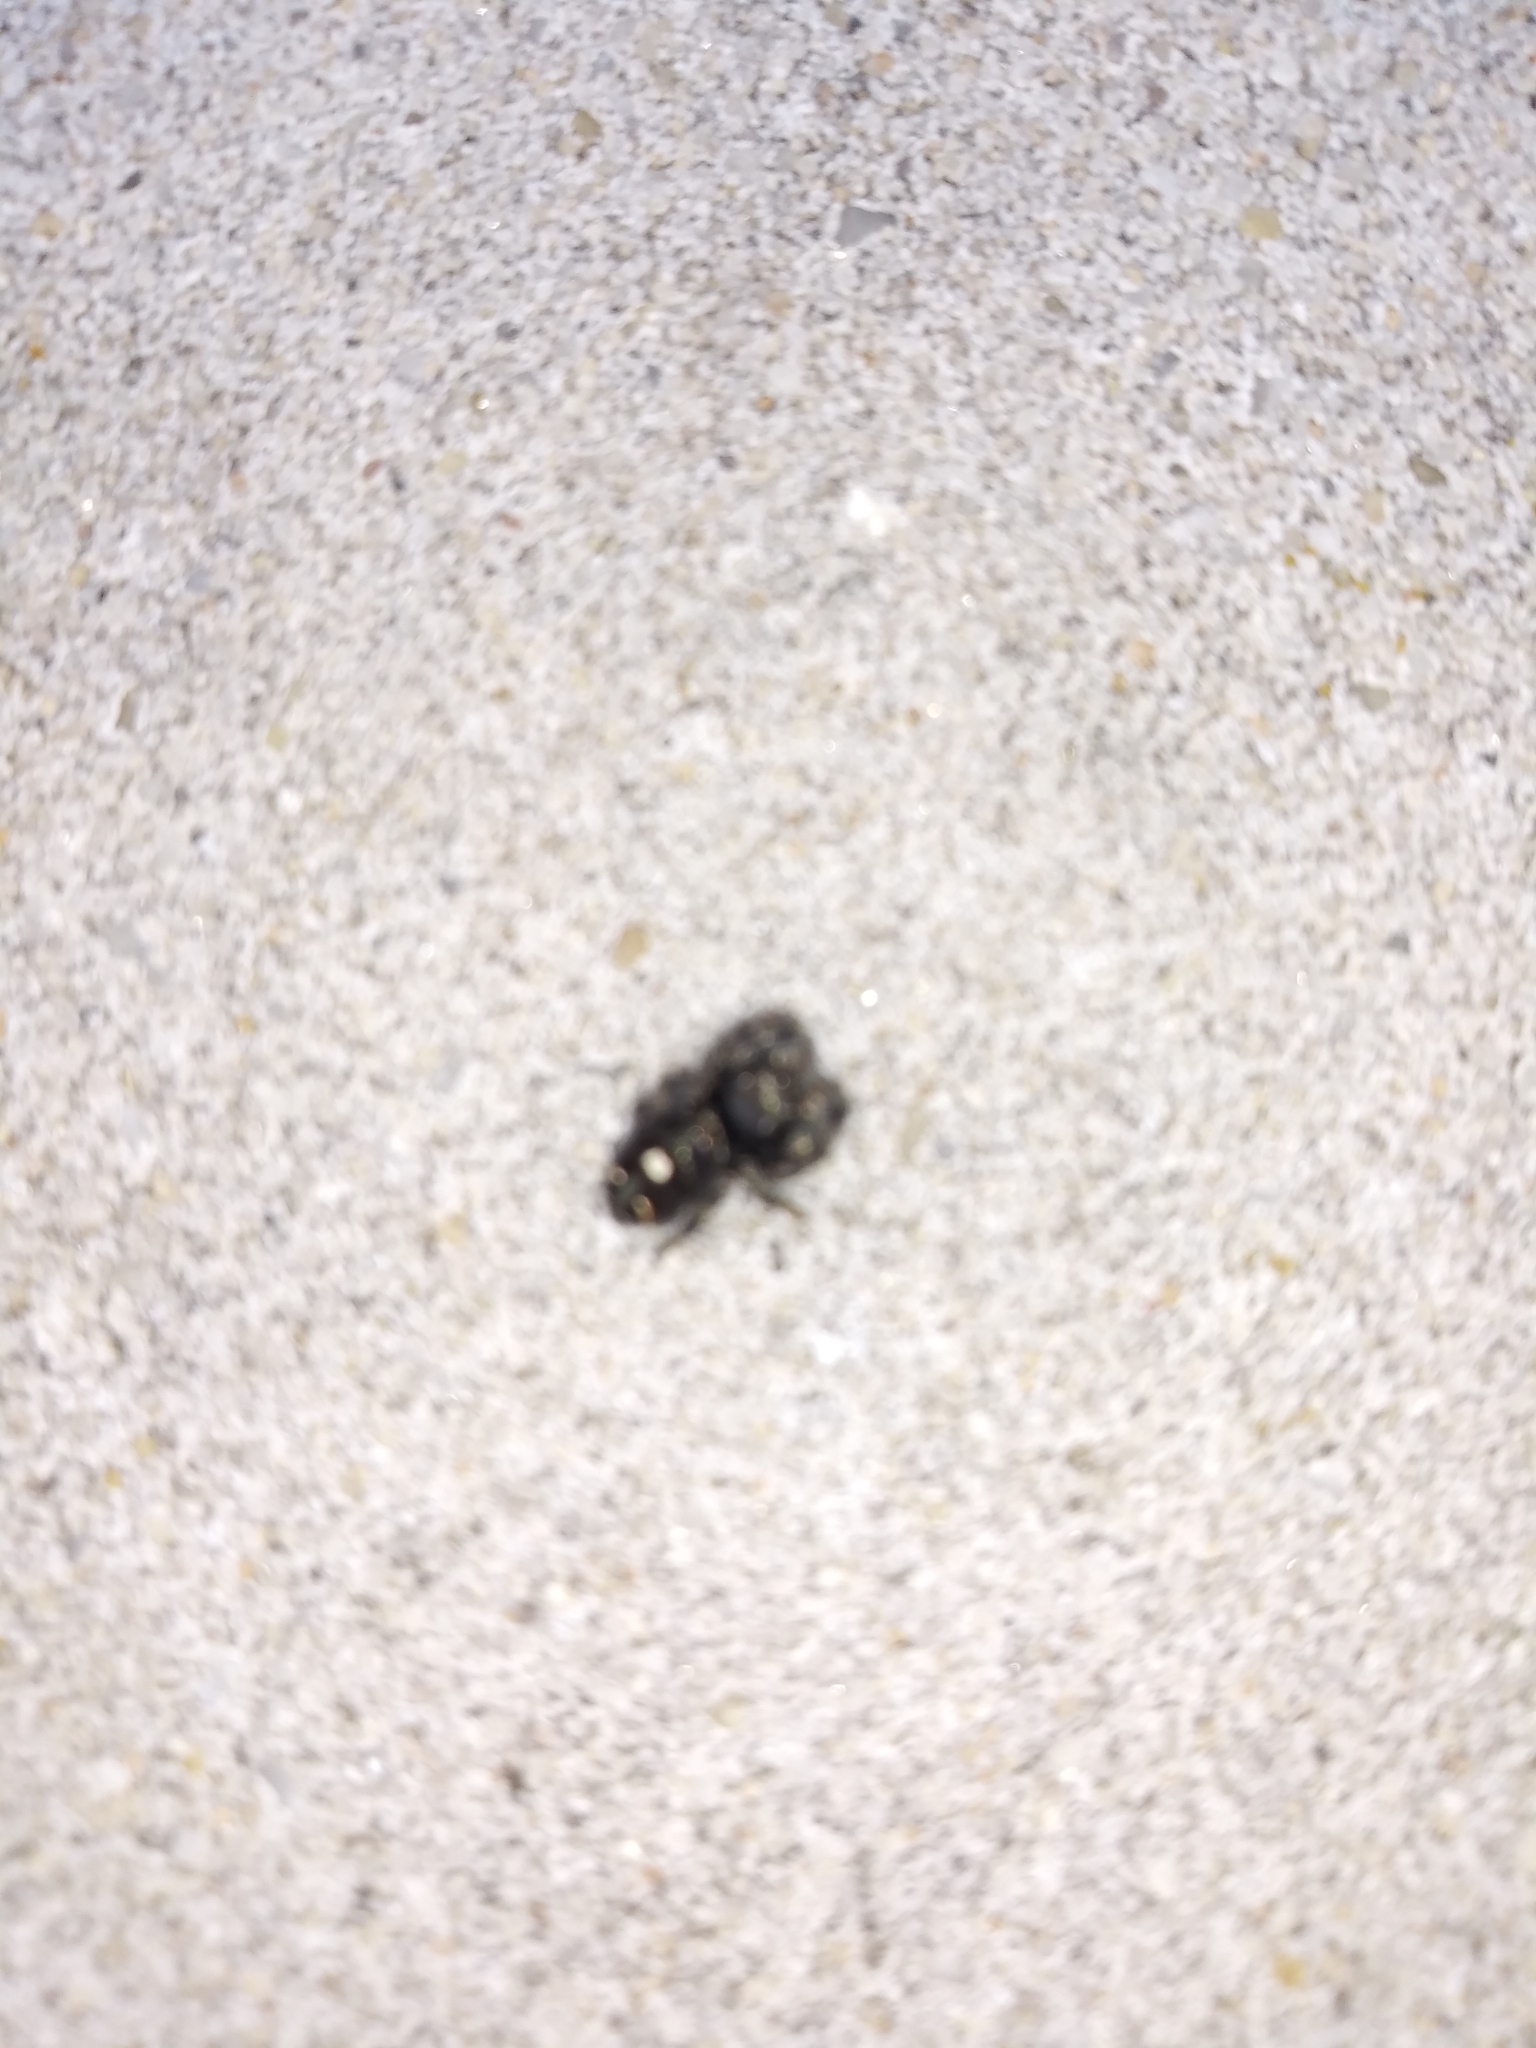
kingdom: Animalia
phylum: Arthropoda
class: Arachnida
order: Araneae
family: Salticidae
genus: Phidippus
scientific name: Phidippus audax
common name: Bold jumper
